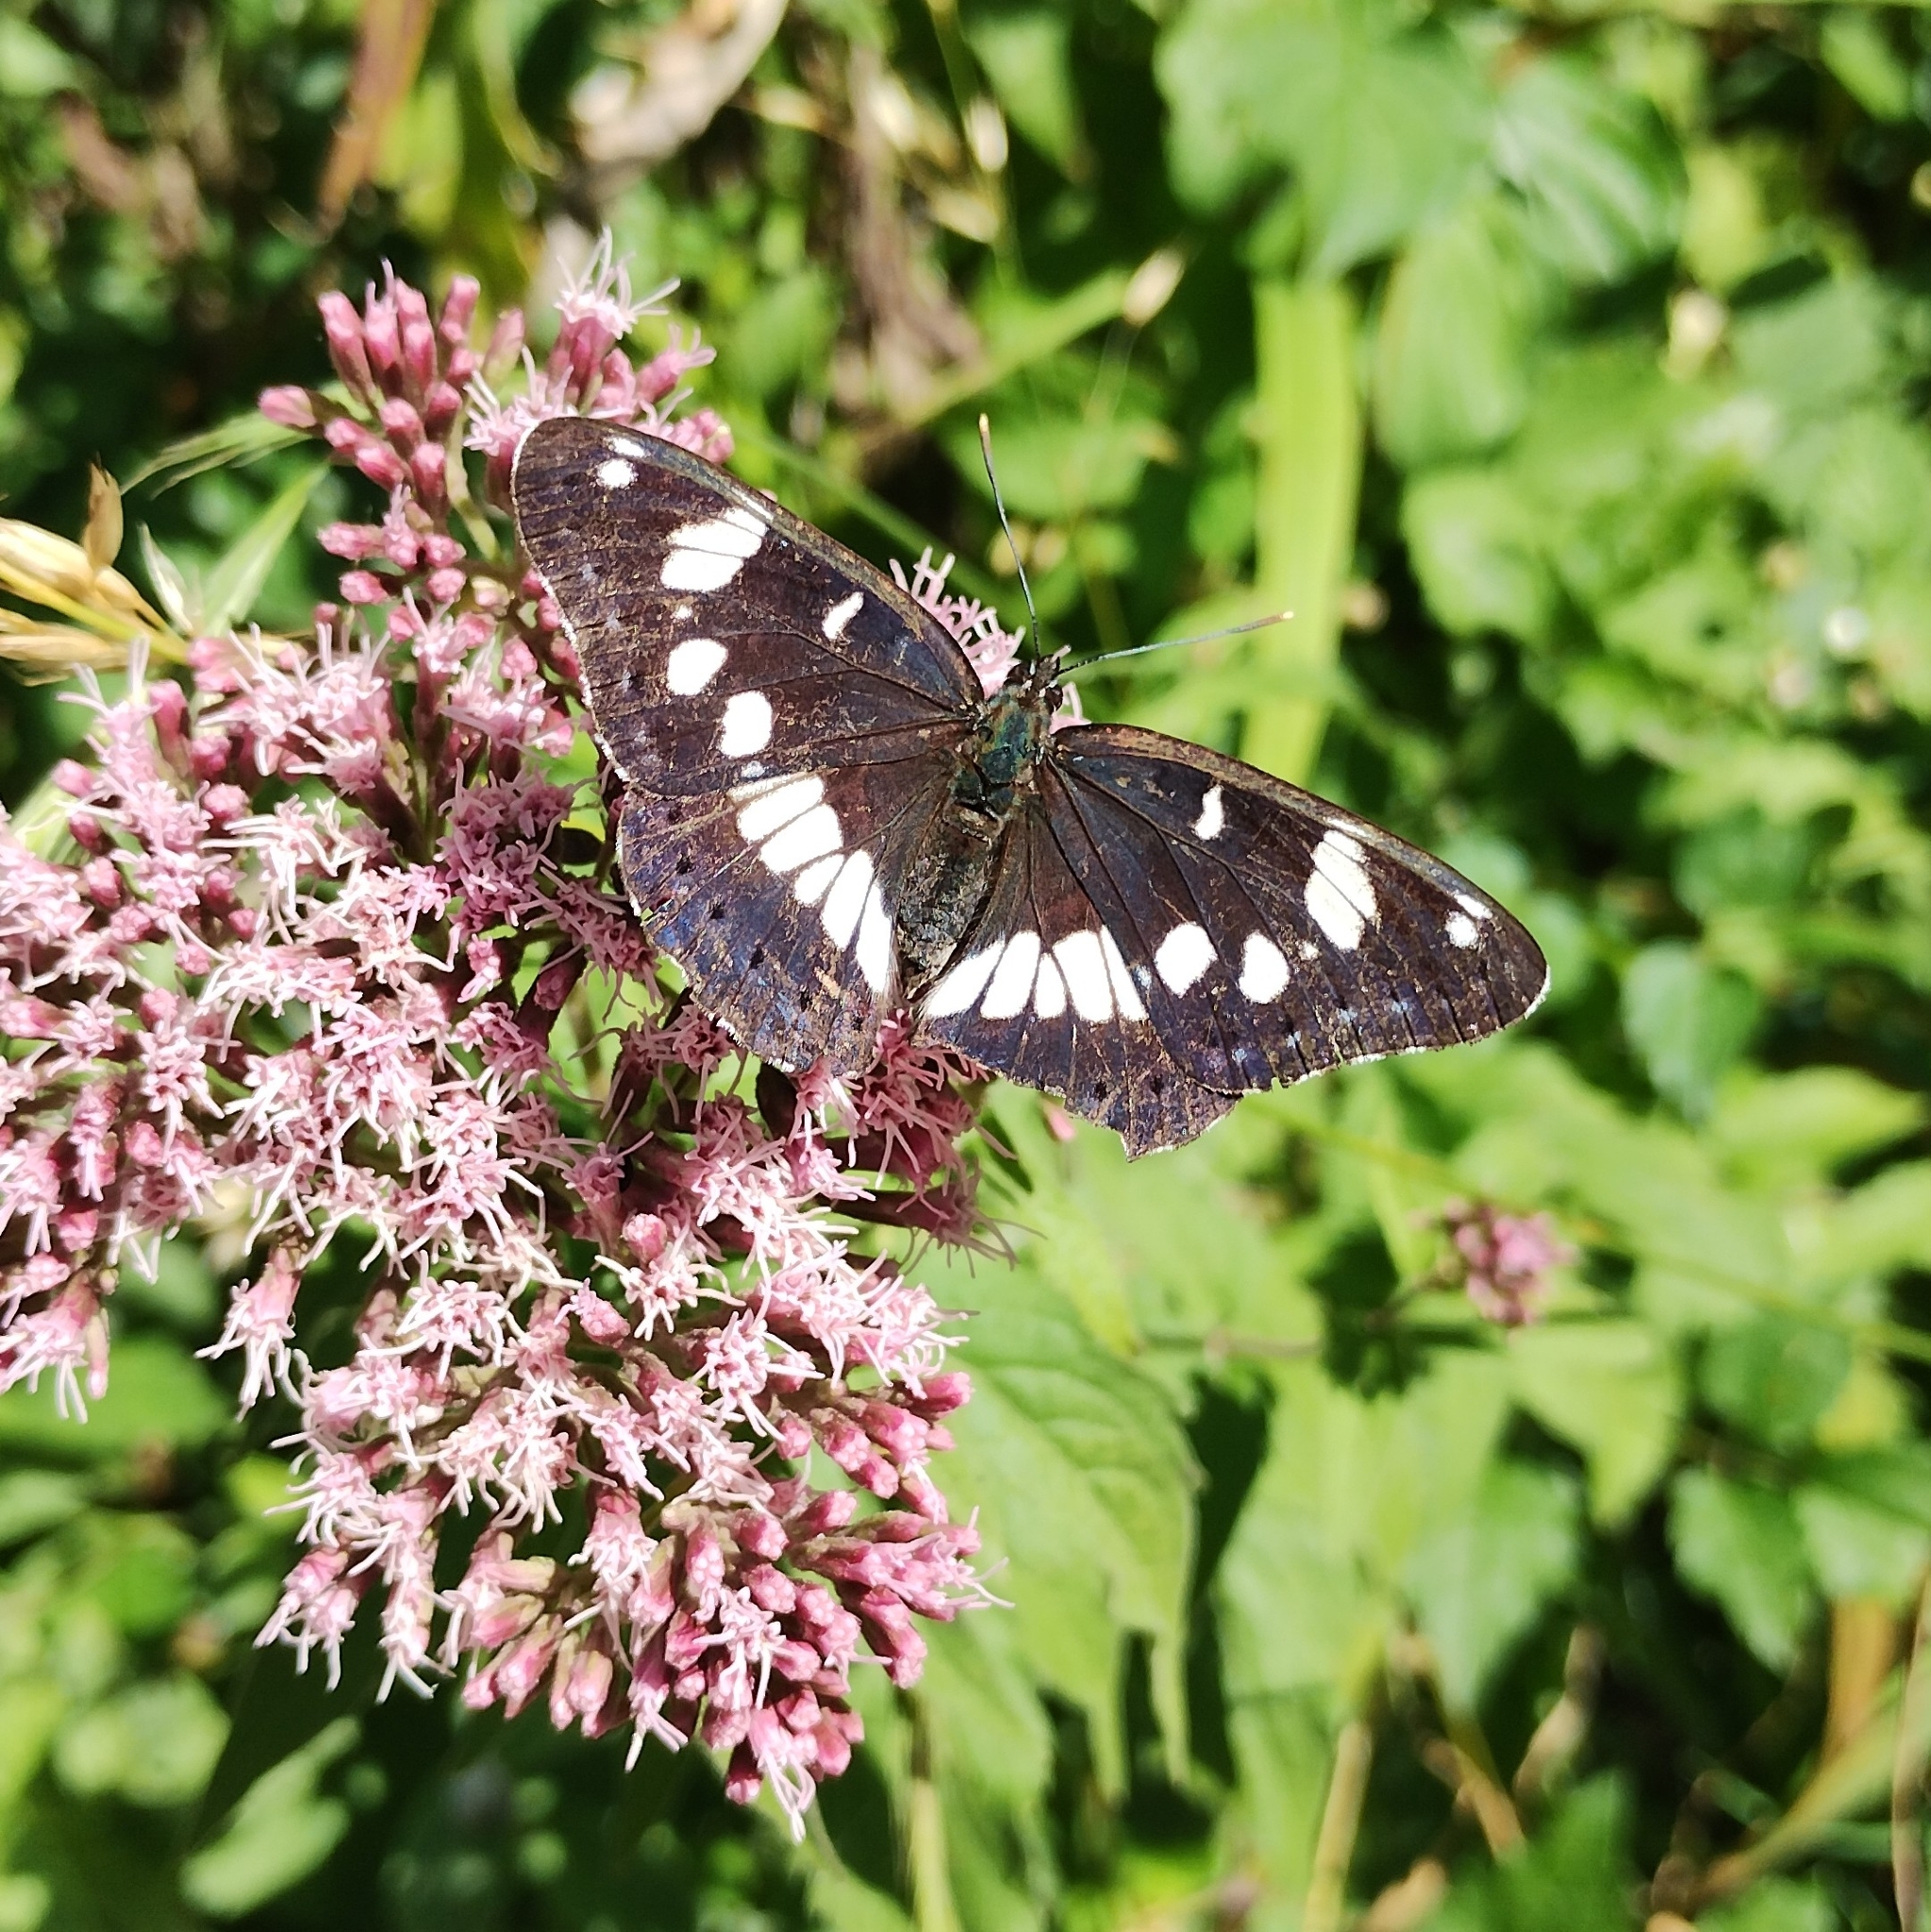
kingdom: Animalia
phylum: Arthropoda
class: Insecta
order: Lepidoptera
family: Nymphalidae
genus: Limenitis
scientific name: Limenitis reducta
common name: Southern white admiral
